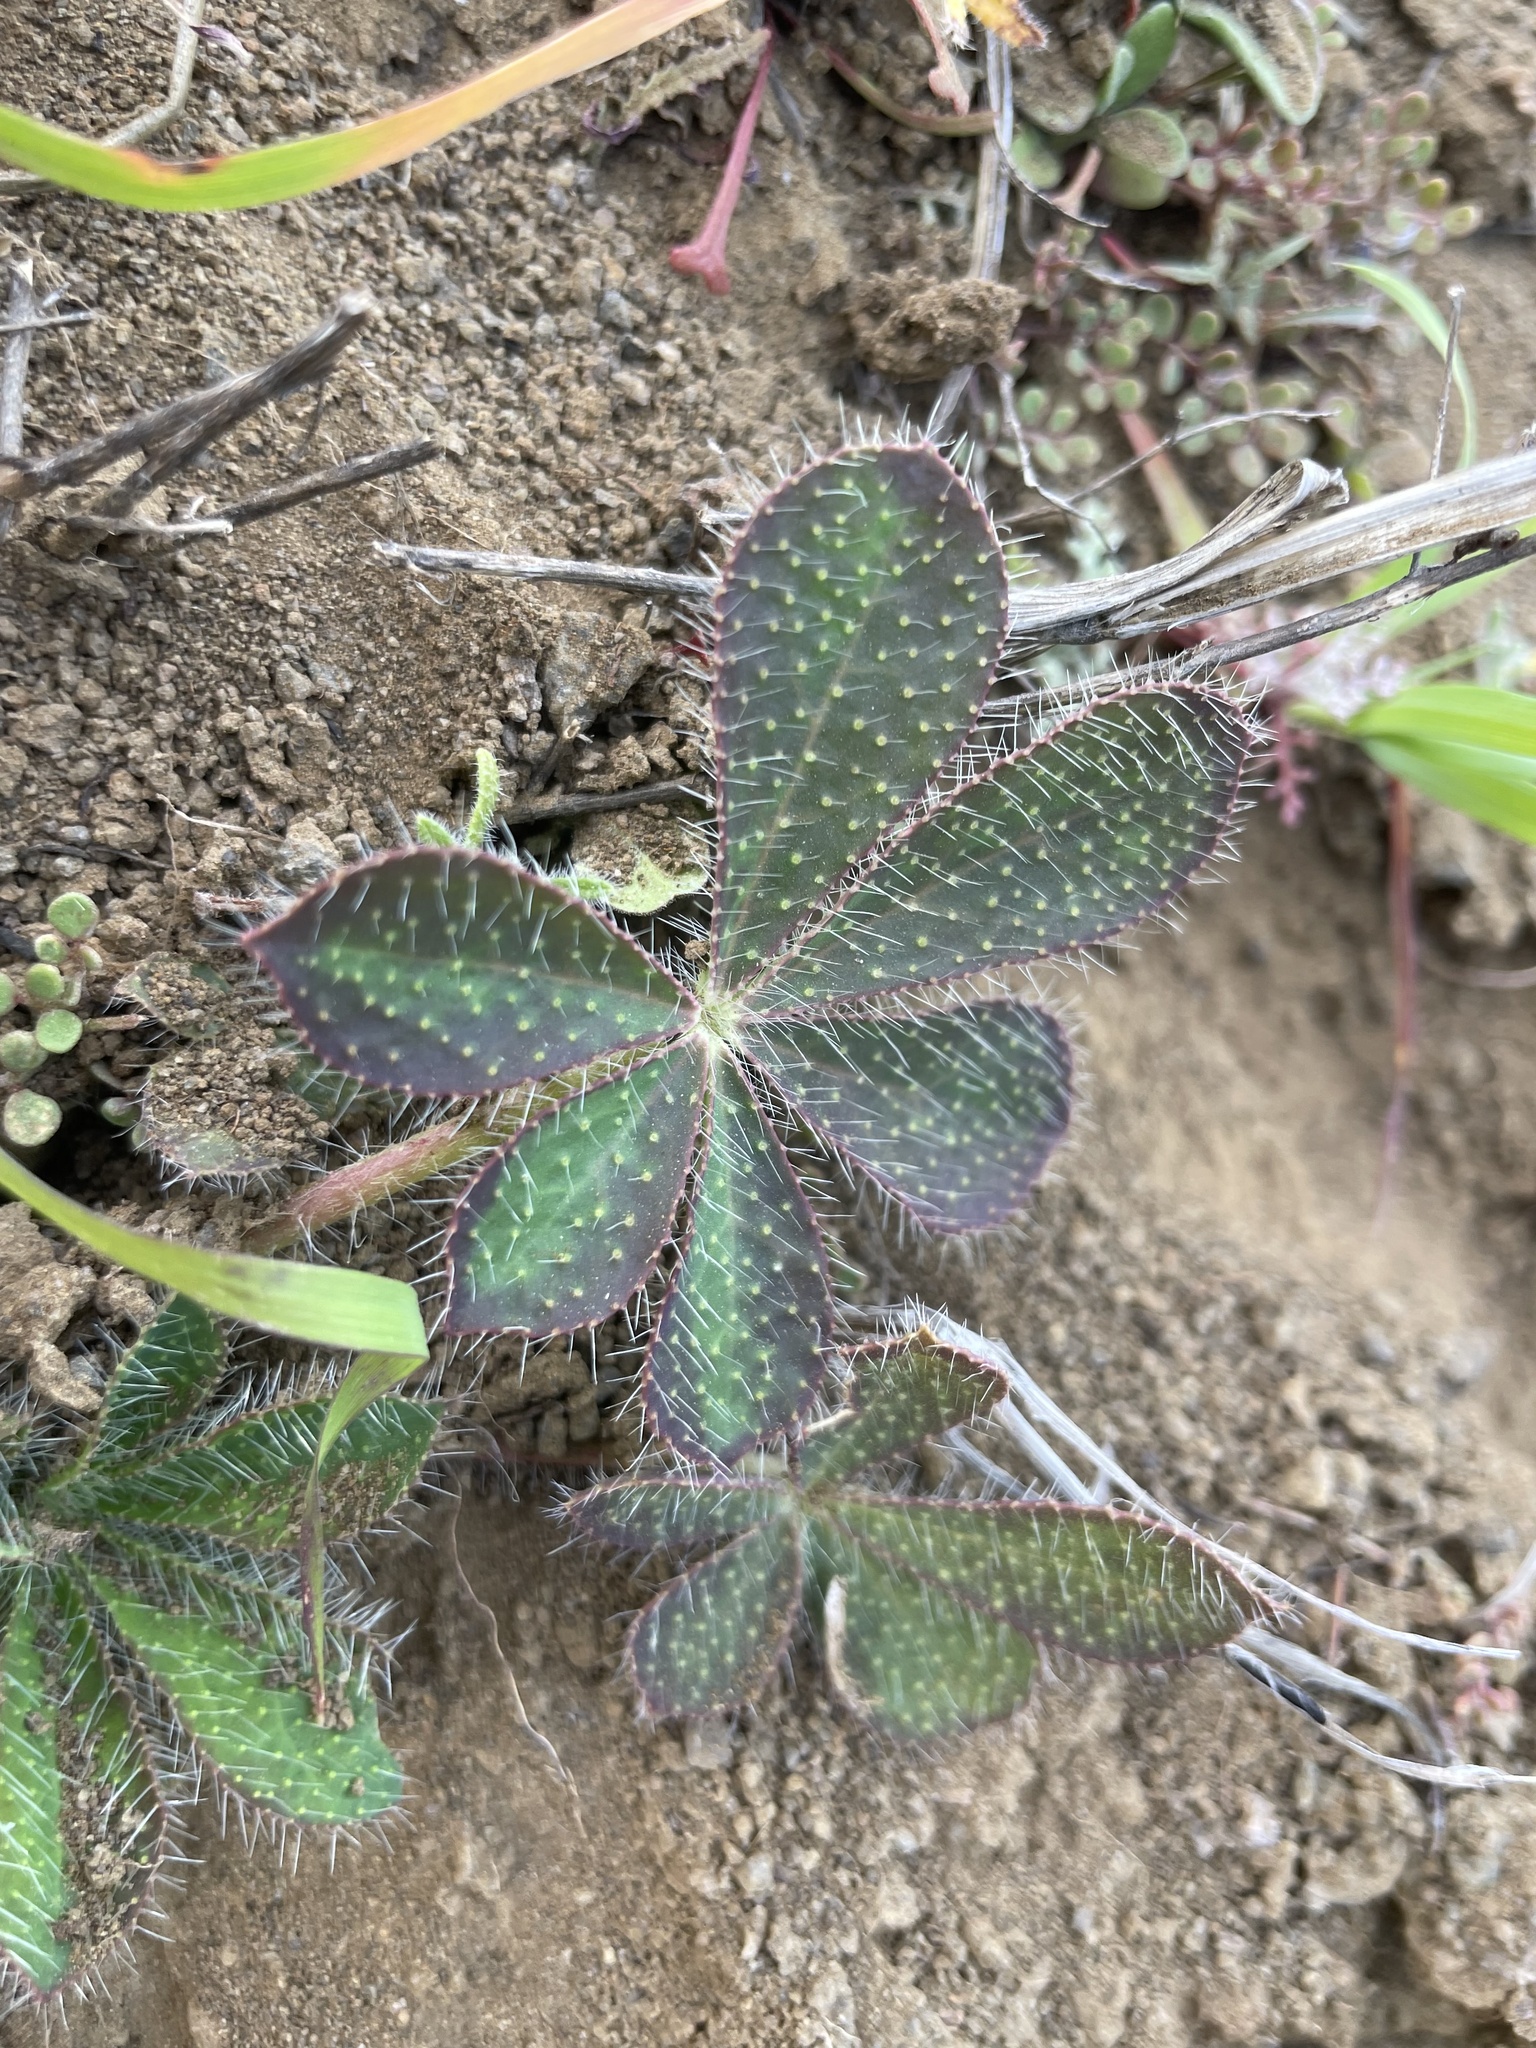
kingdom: Plantae
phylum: Tracheophyta
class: Magnoliopsida
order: Fabales
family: Fabaceae
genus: Lupinus
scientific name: Lupinus hirsutissimus
